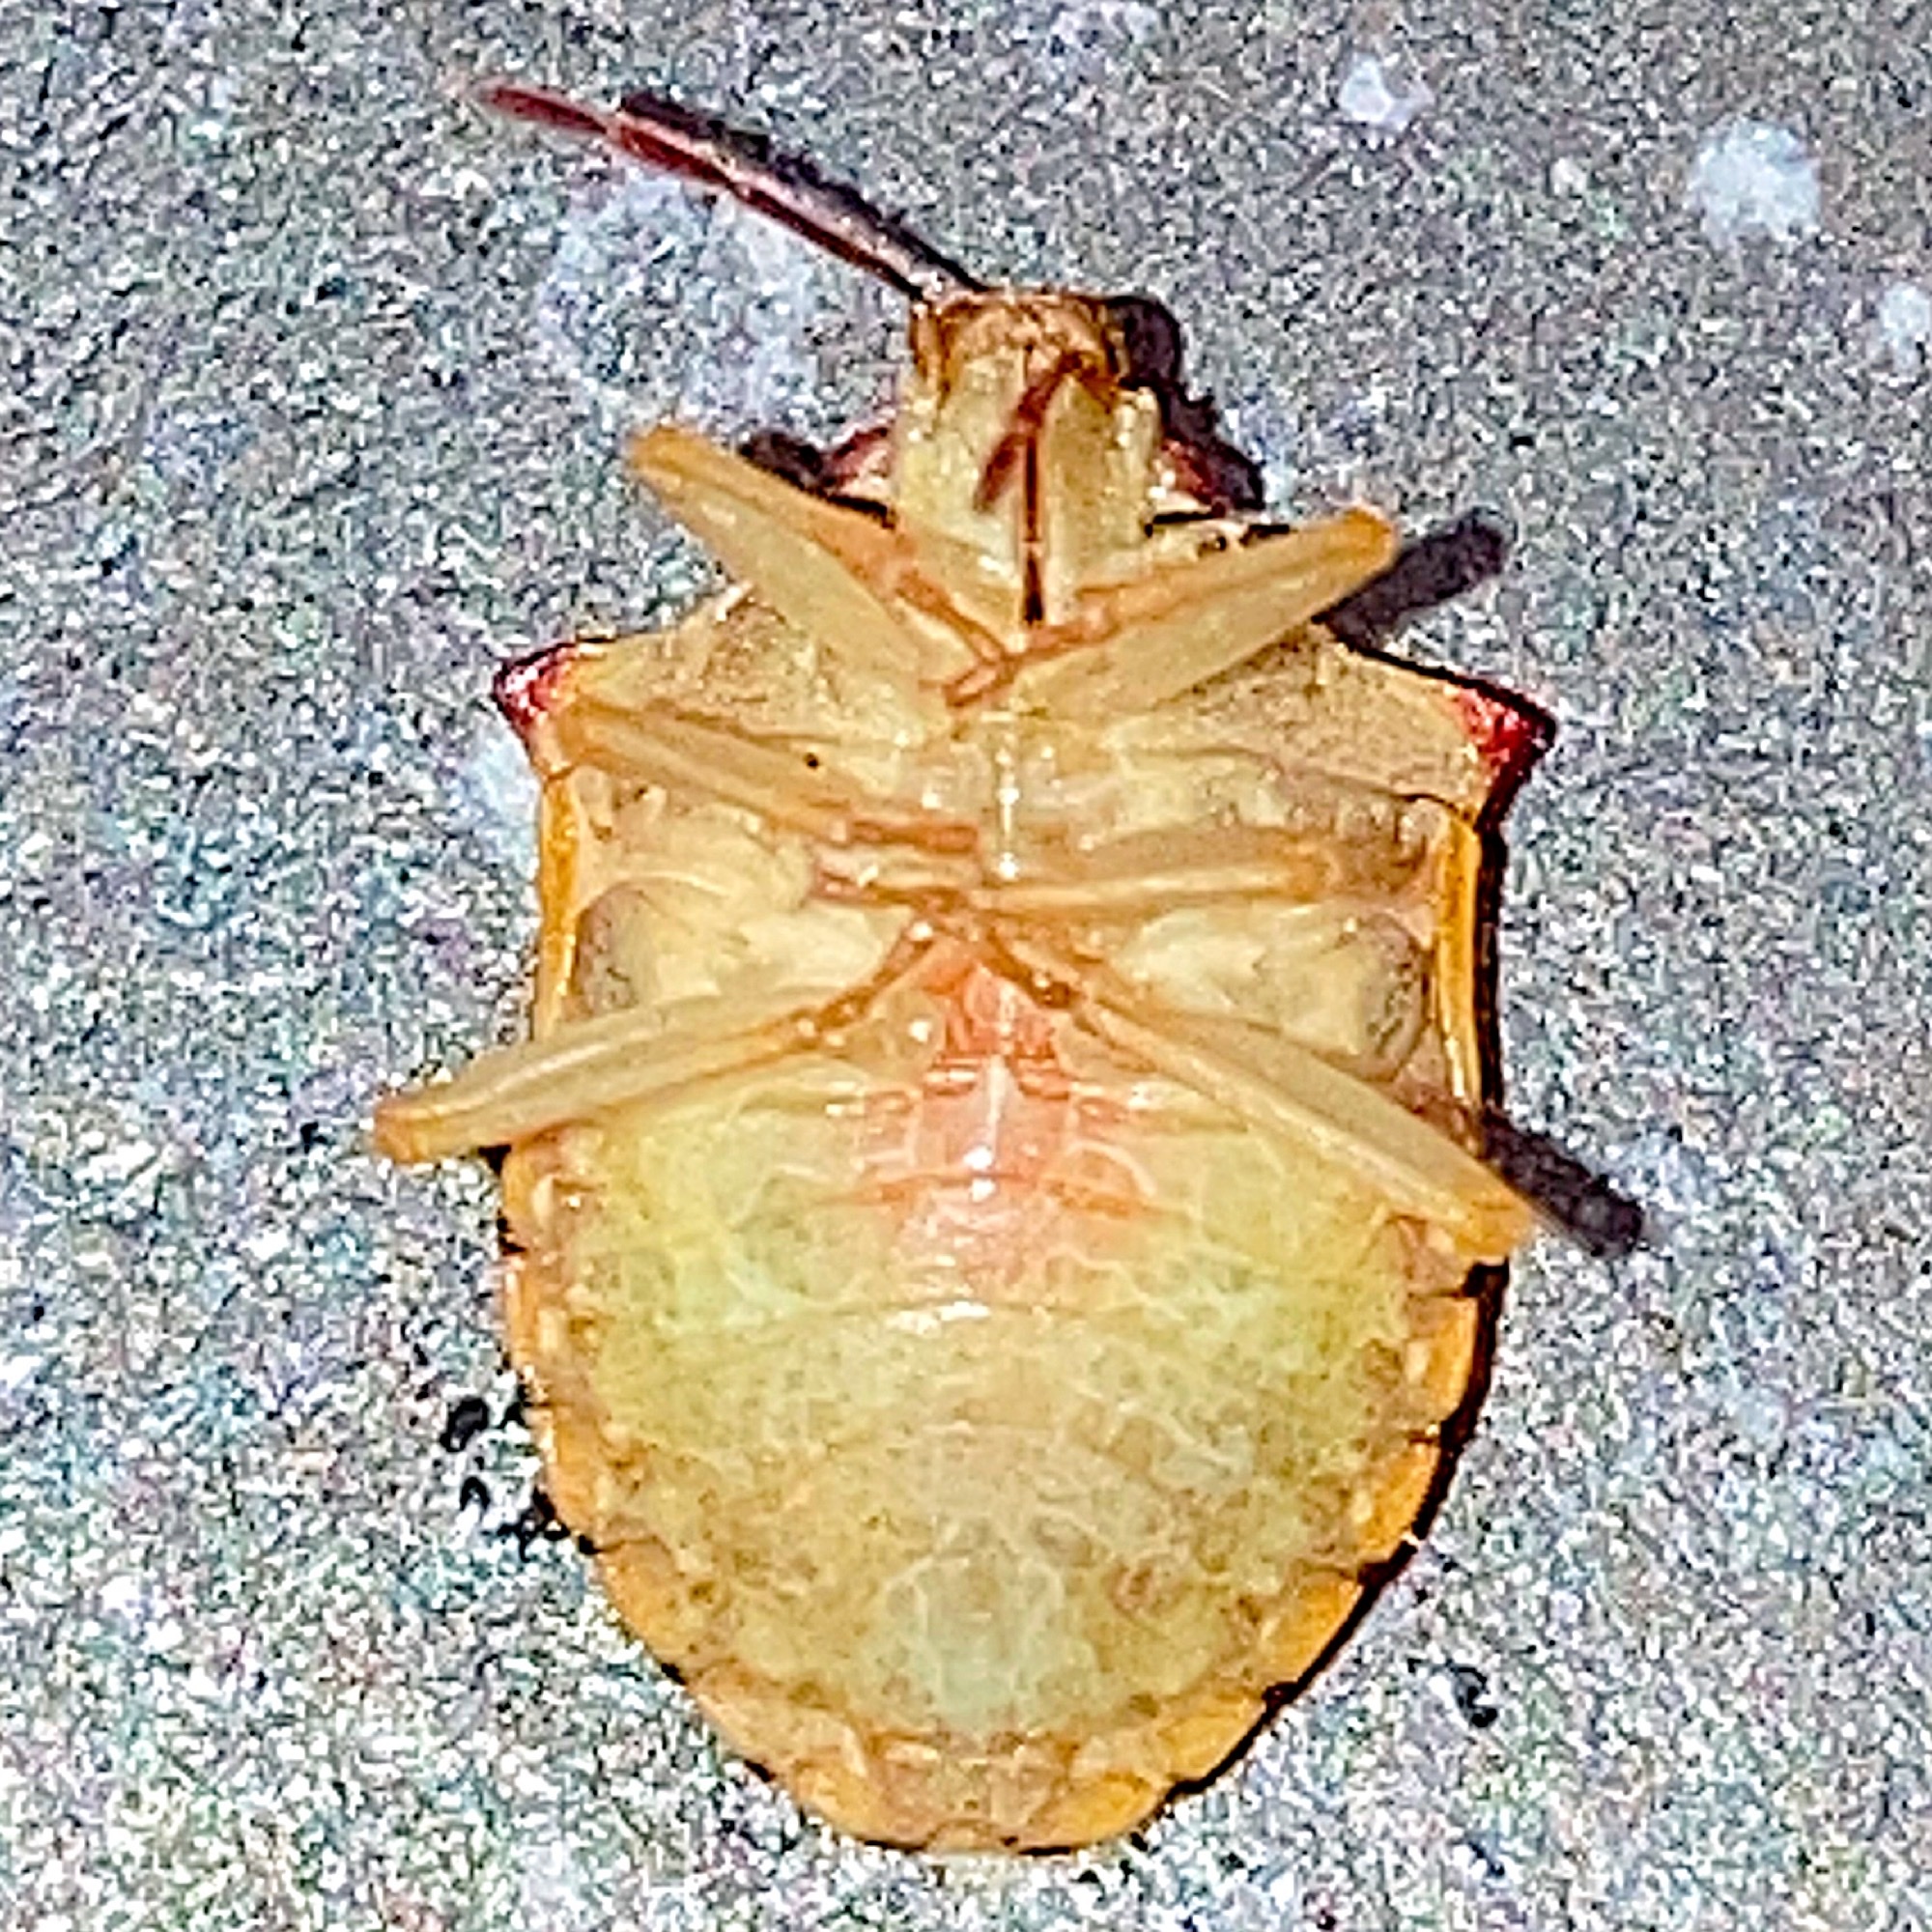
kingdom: Animalia
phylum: Arthropoda
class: Insecta
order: Hemiptera
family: Pentatomidae
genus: Dendrocoris
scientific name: Dendrocoris humeralis
